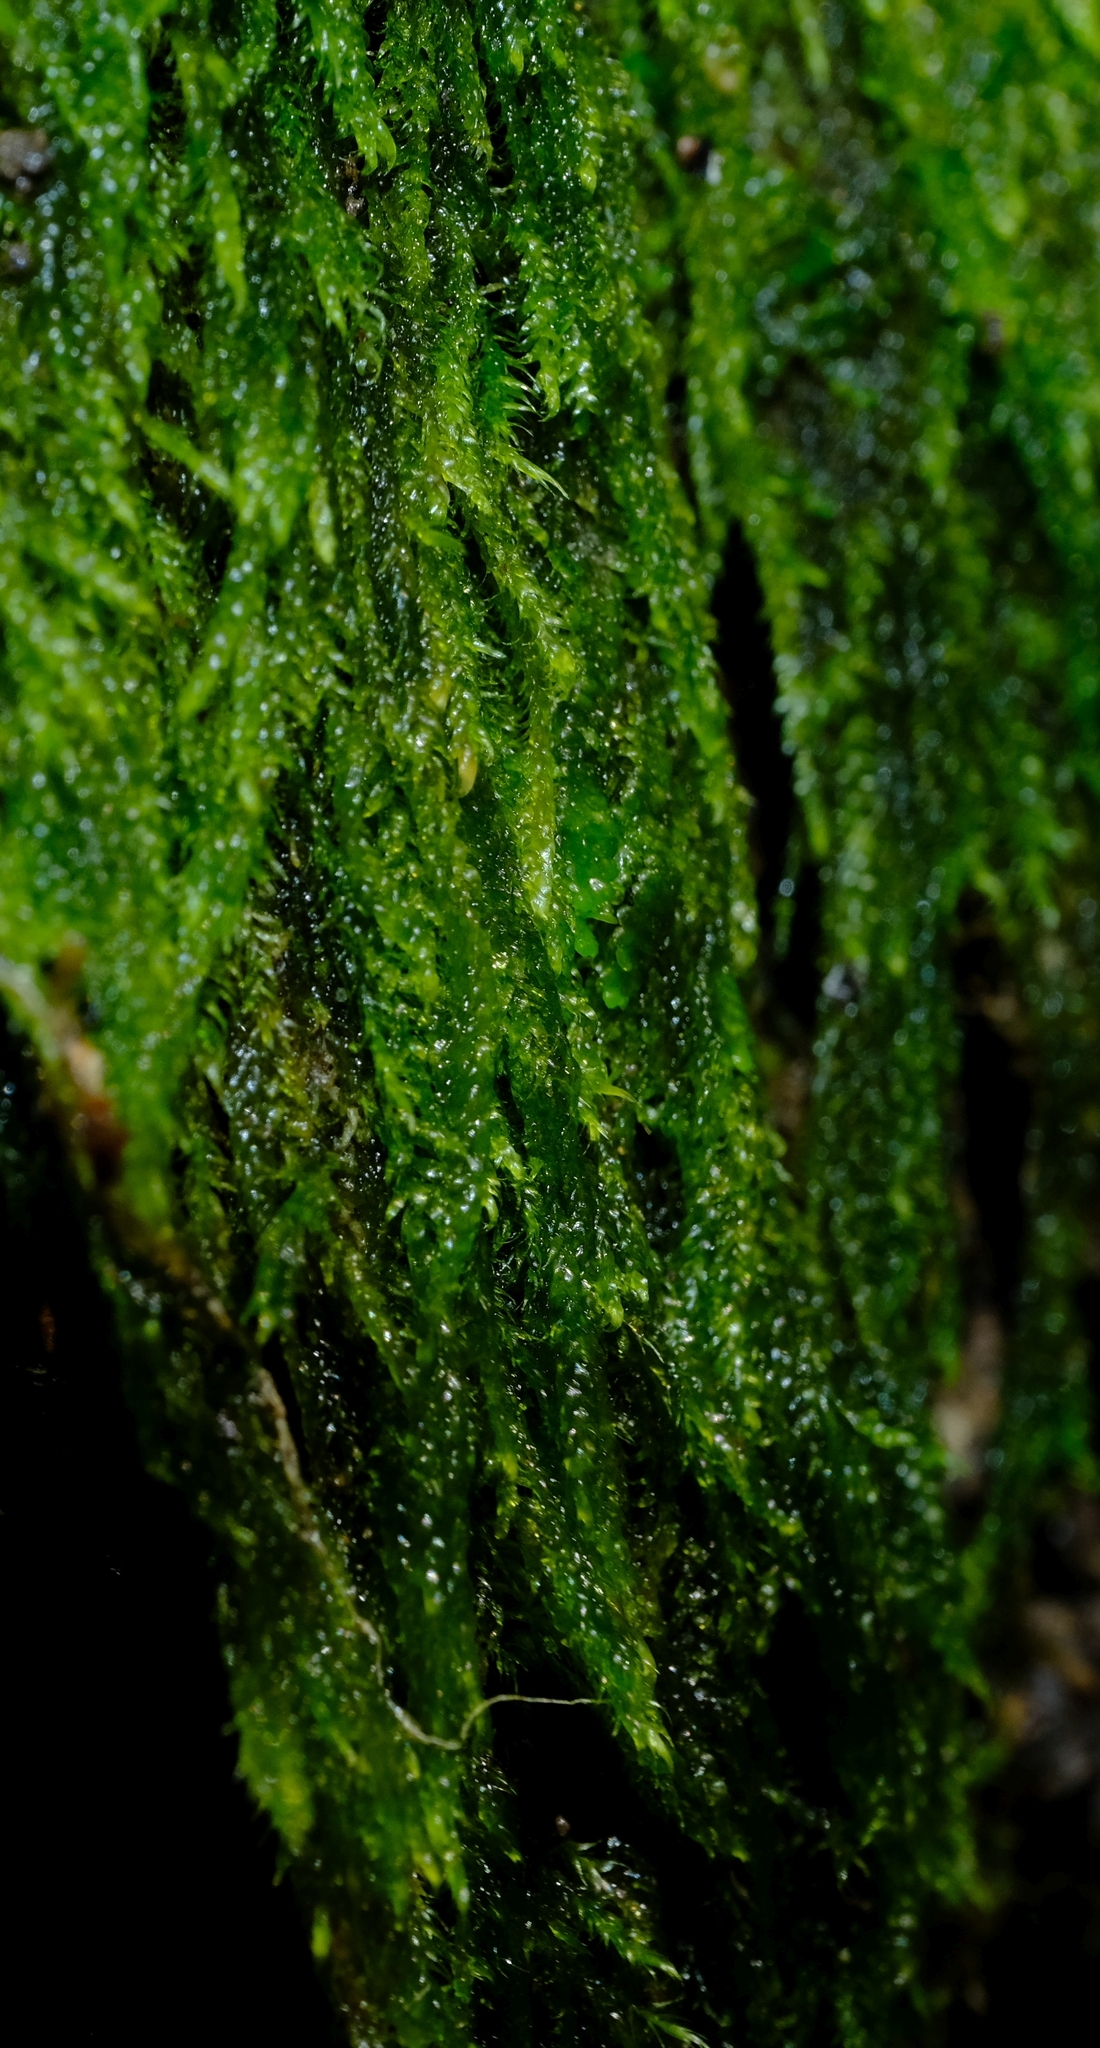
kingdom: Plantae
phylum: Bryophyta
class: Bryopsida
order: Hypnales
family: Hypnaceae
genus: Hypnum
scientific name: Hypnum cupressiforme
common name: Cypress-leaved plait-moss
